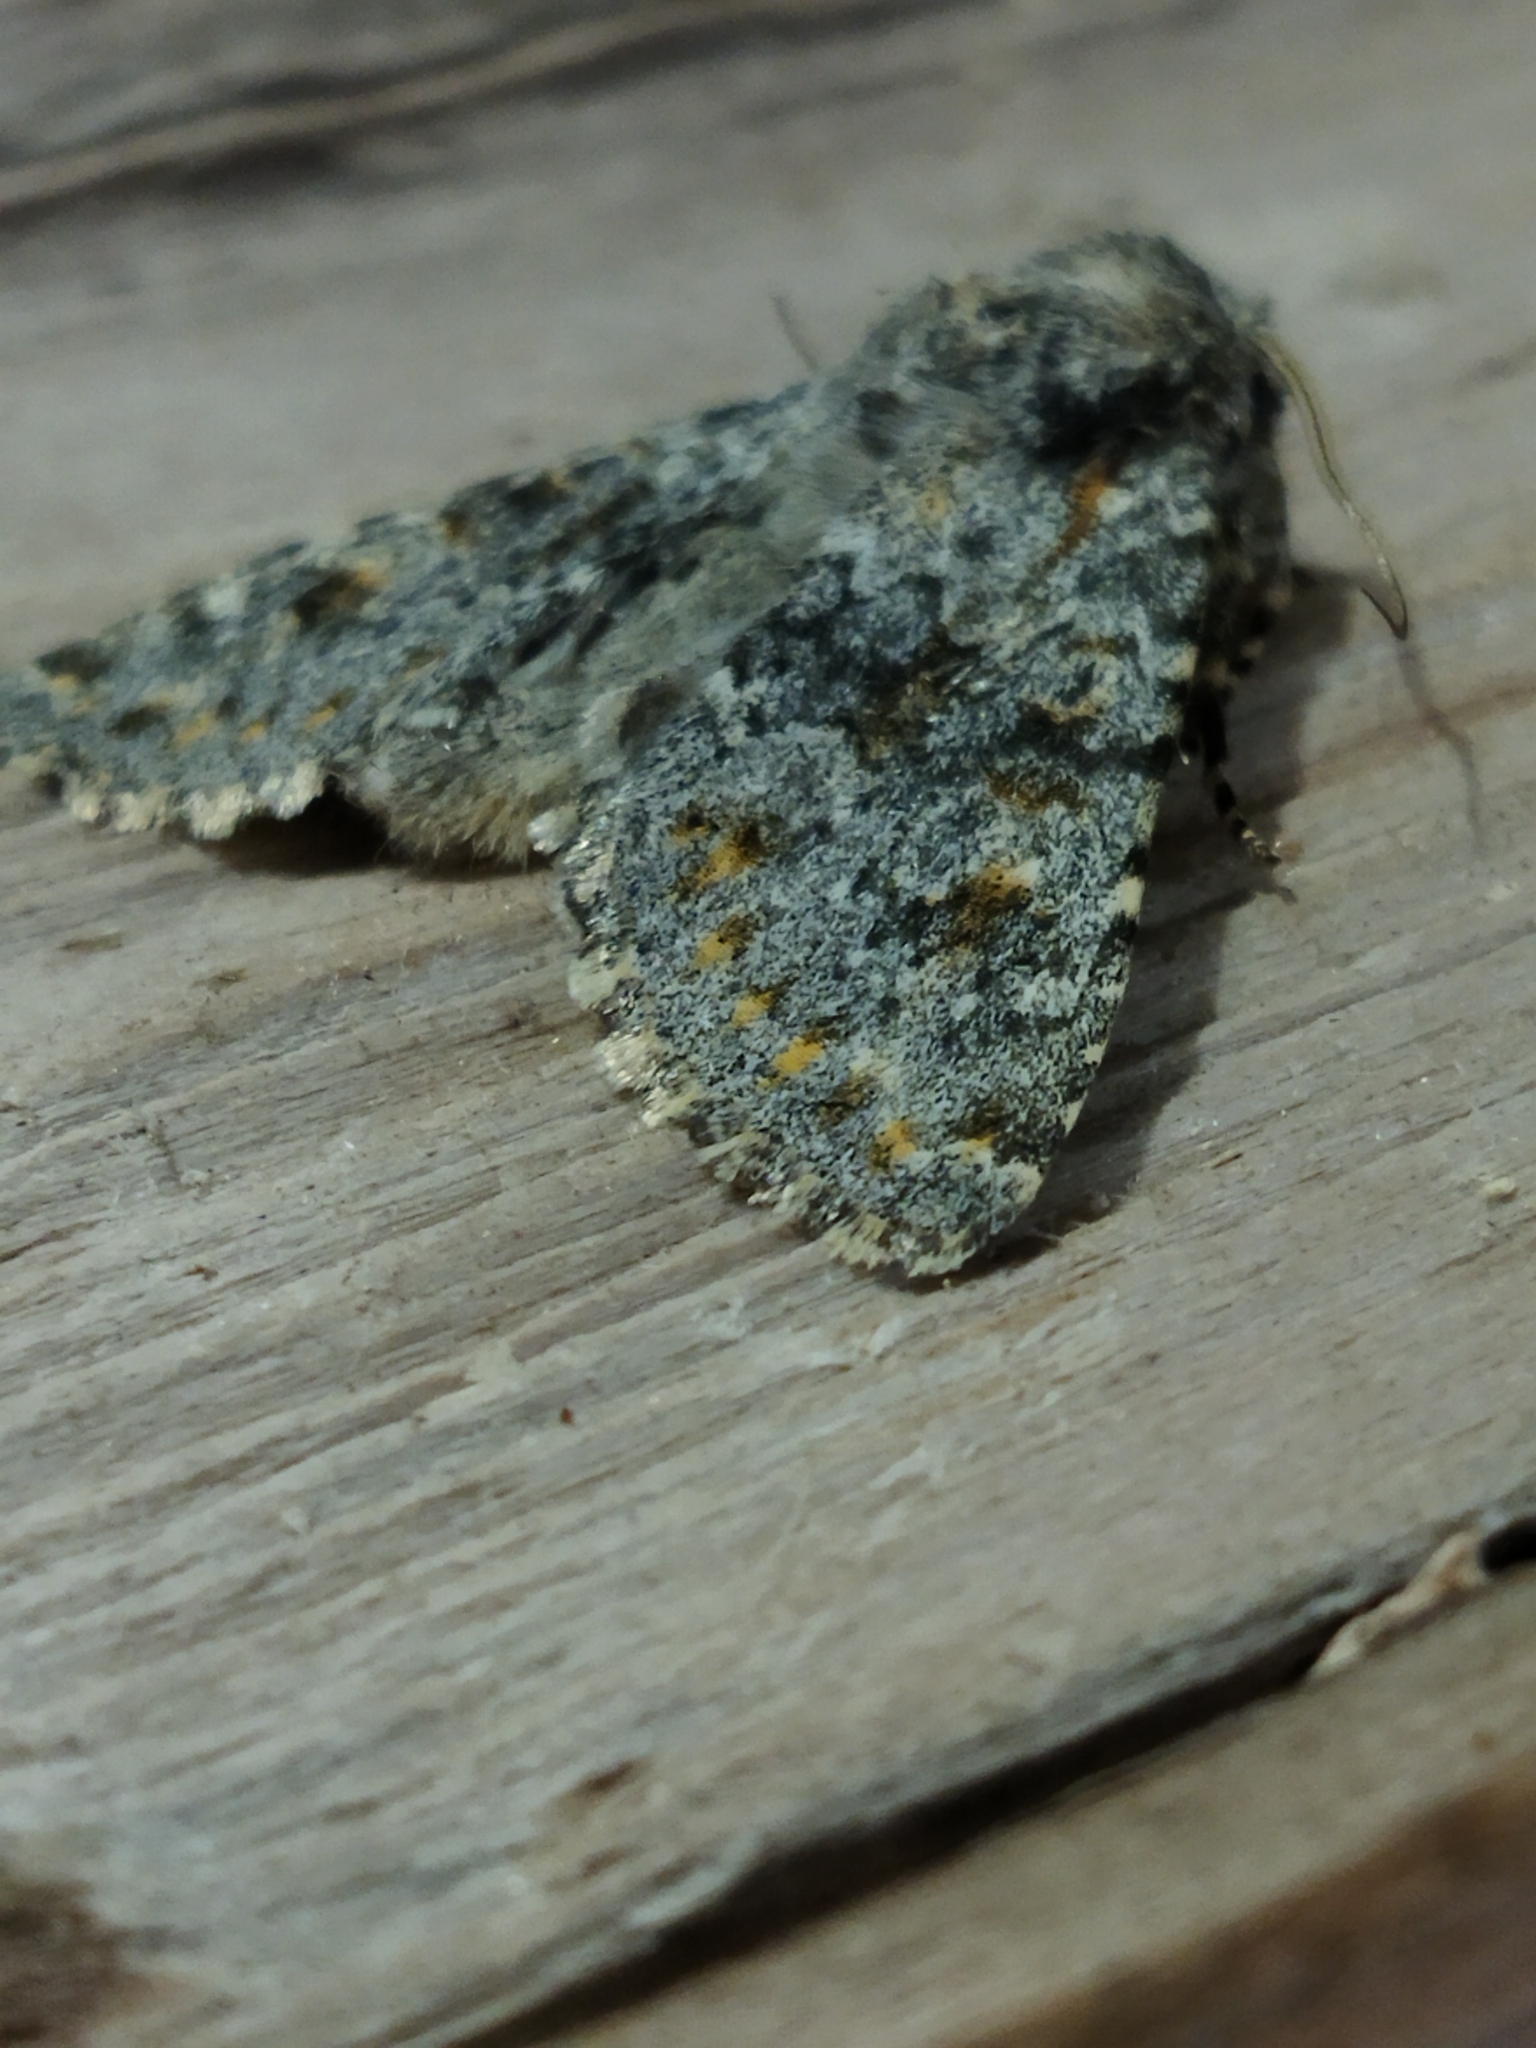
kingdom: Animalia
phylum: Arthropoda
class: Insecta
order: Lepidoptera
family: Noctuidae
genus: Polymixis
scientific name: Polymixis rufocincta
